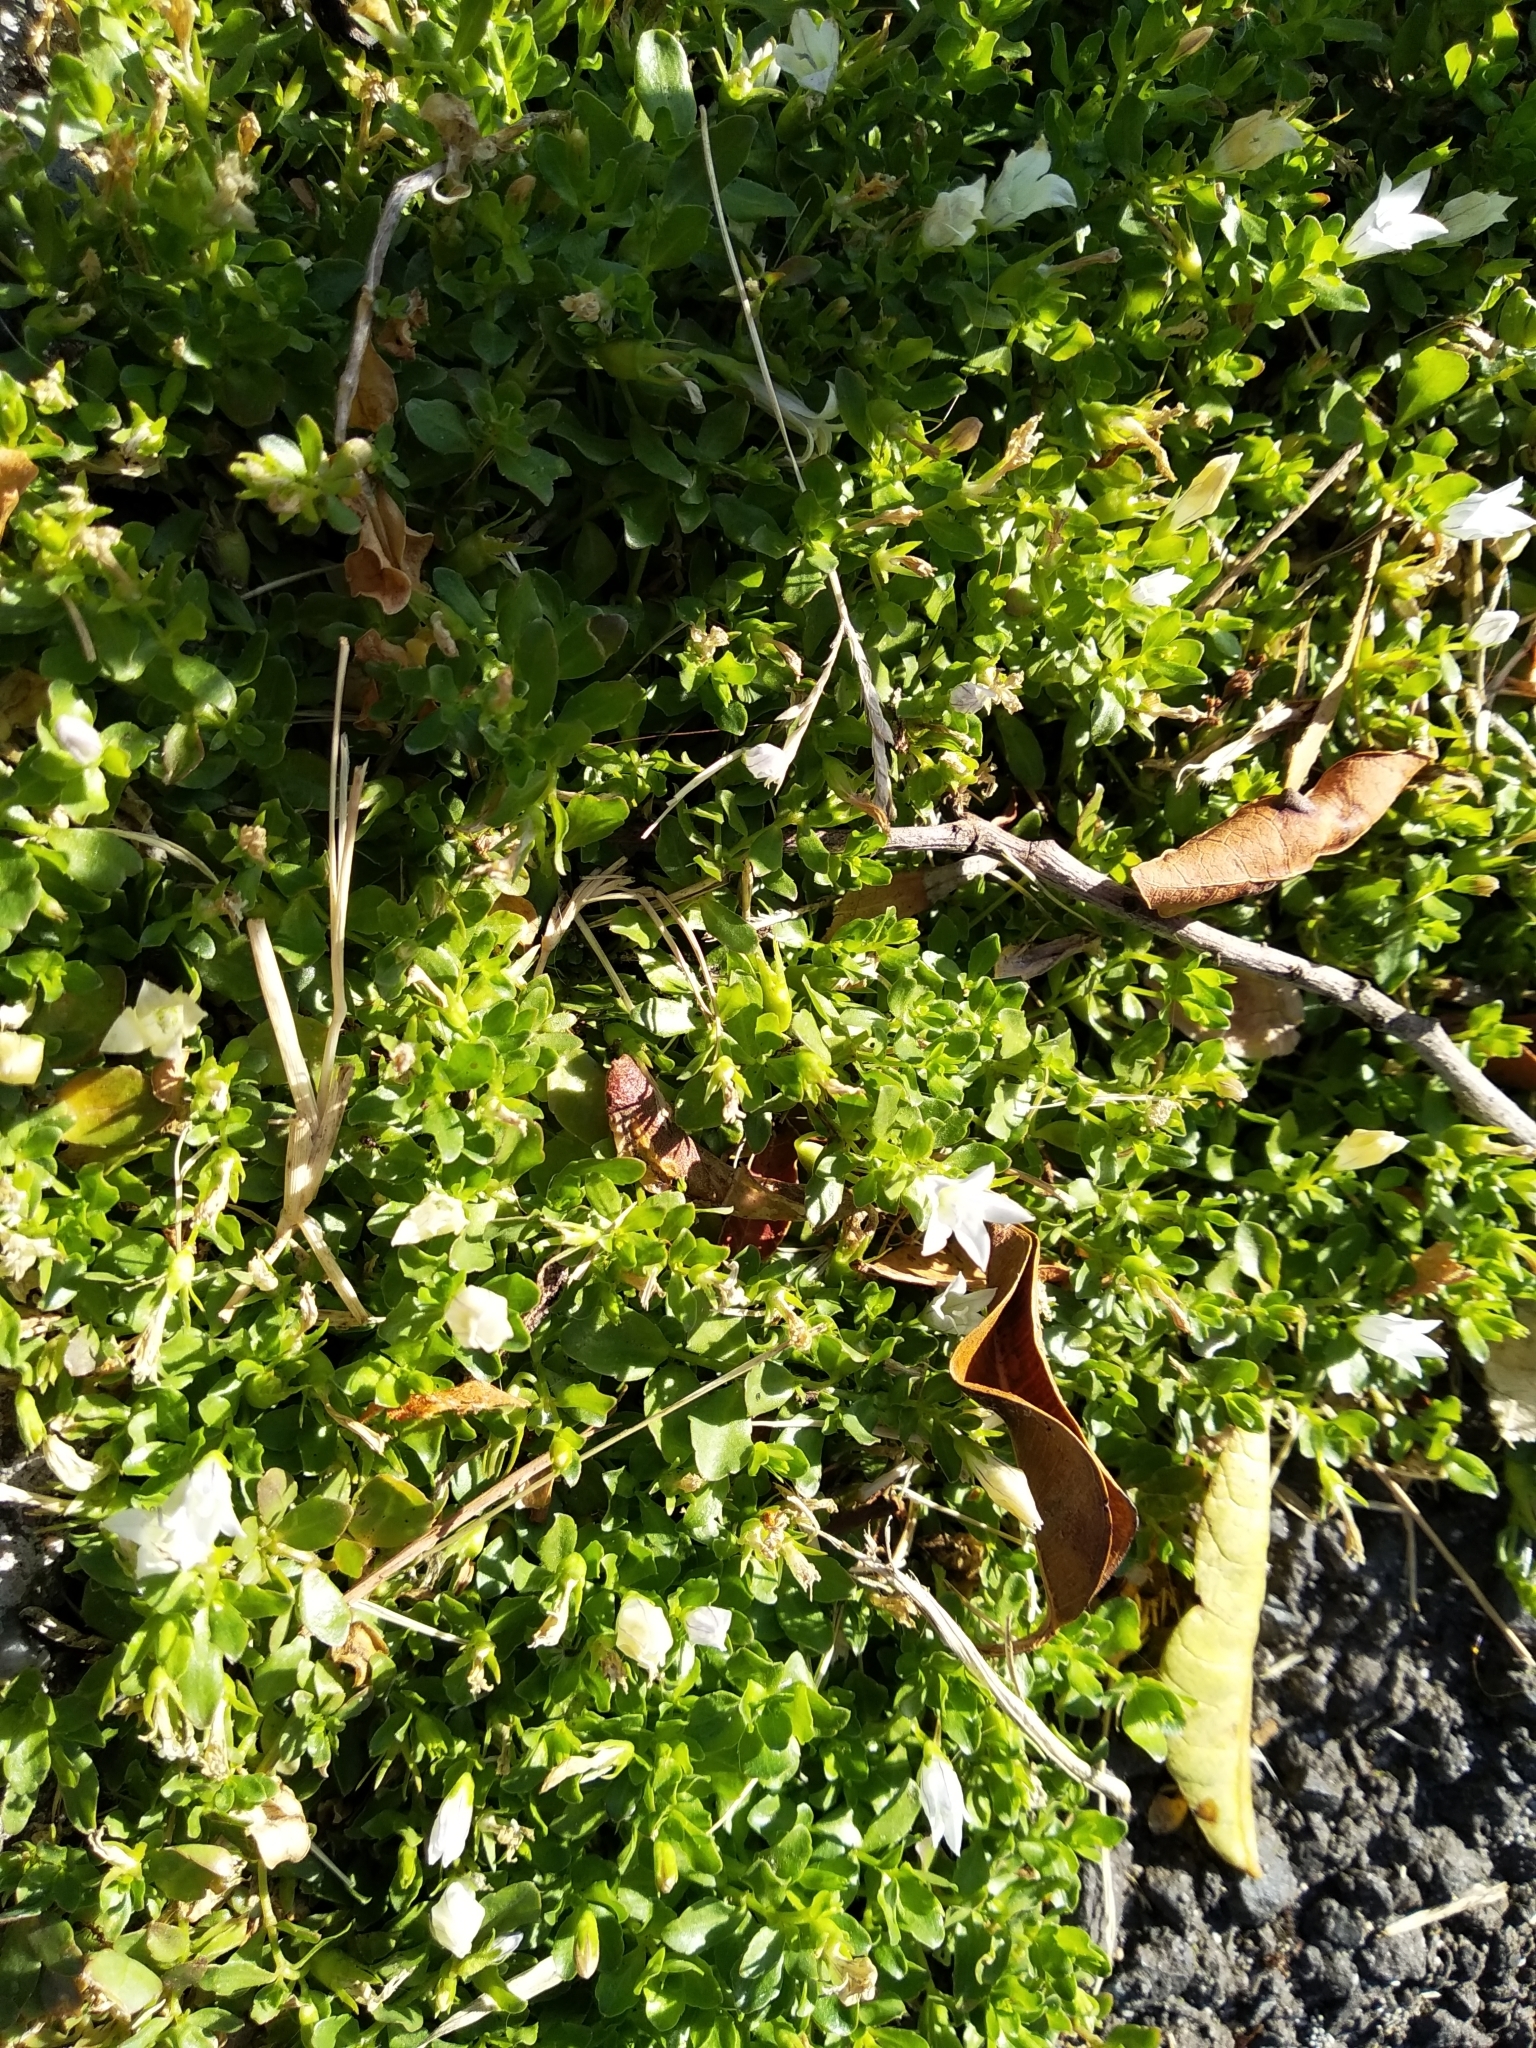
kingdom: Plantae
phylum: Tracheophyta
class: Magnoliopsida
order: Asterales
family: Campanulaceae
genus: Wahlenbergia
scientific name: Wahlenbergia procumbens
